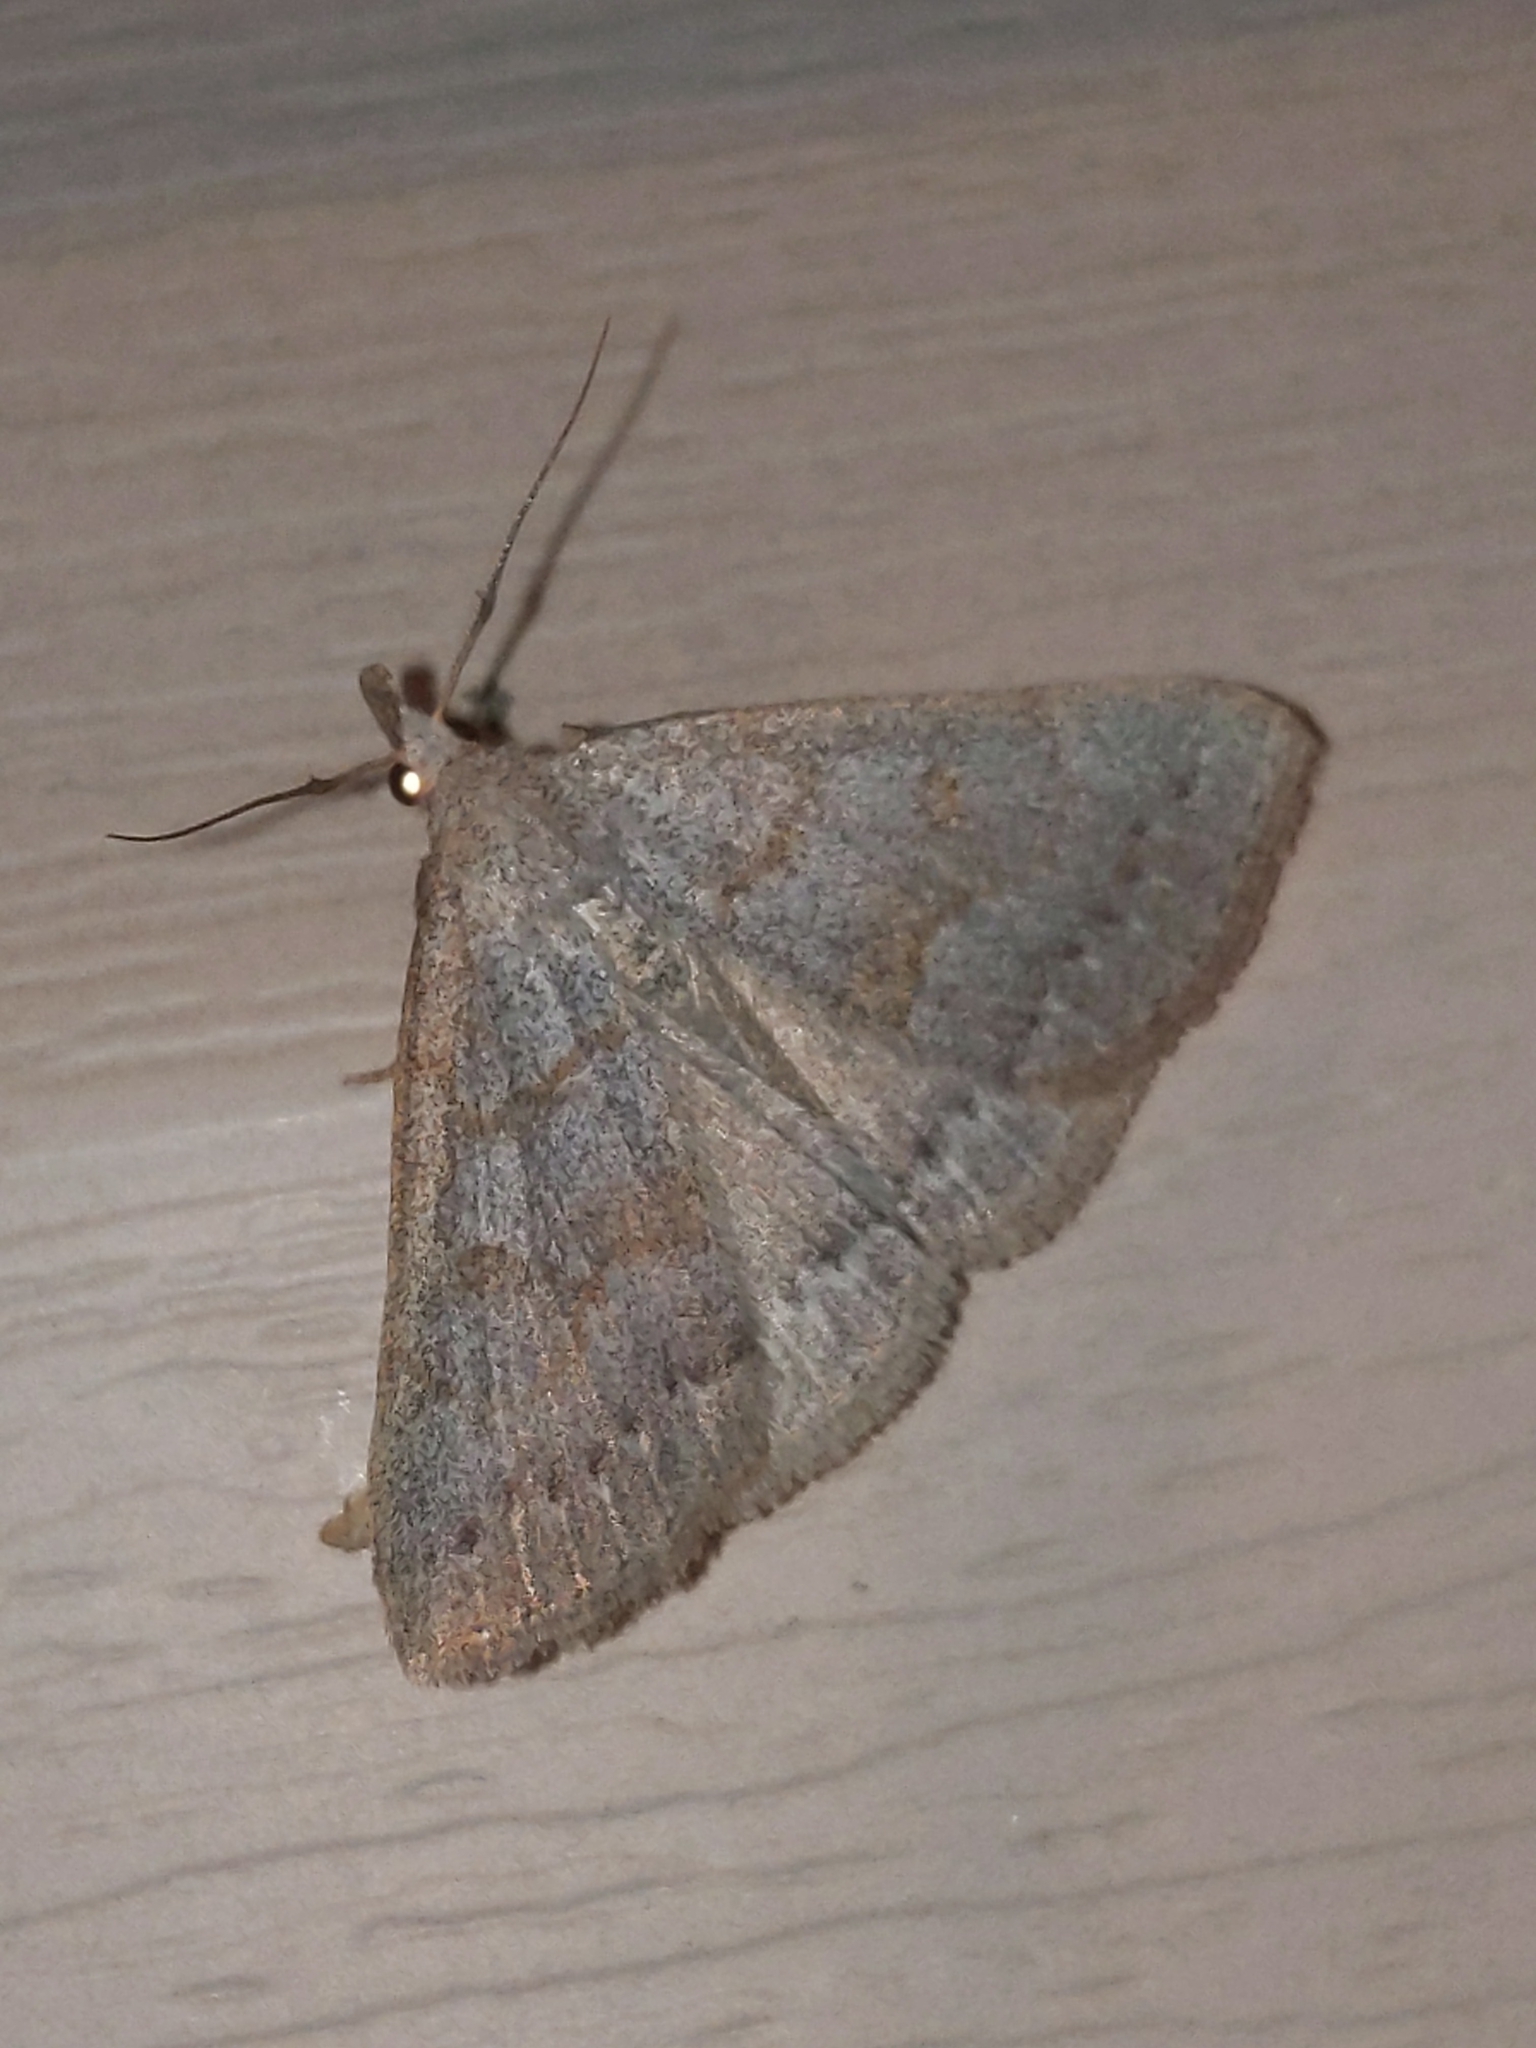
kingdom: Animalia
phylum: Arthropoda
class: Insecta
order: Lepidoptera
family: Erebidae
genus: Macrochilo
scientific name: Macrochilo morbidalis
